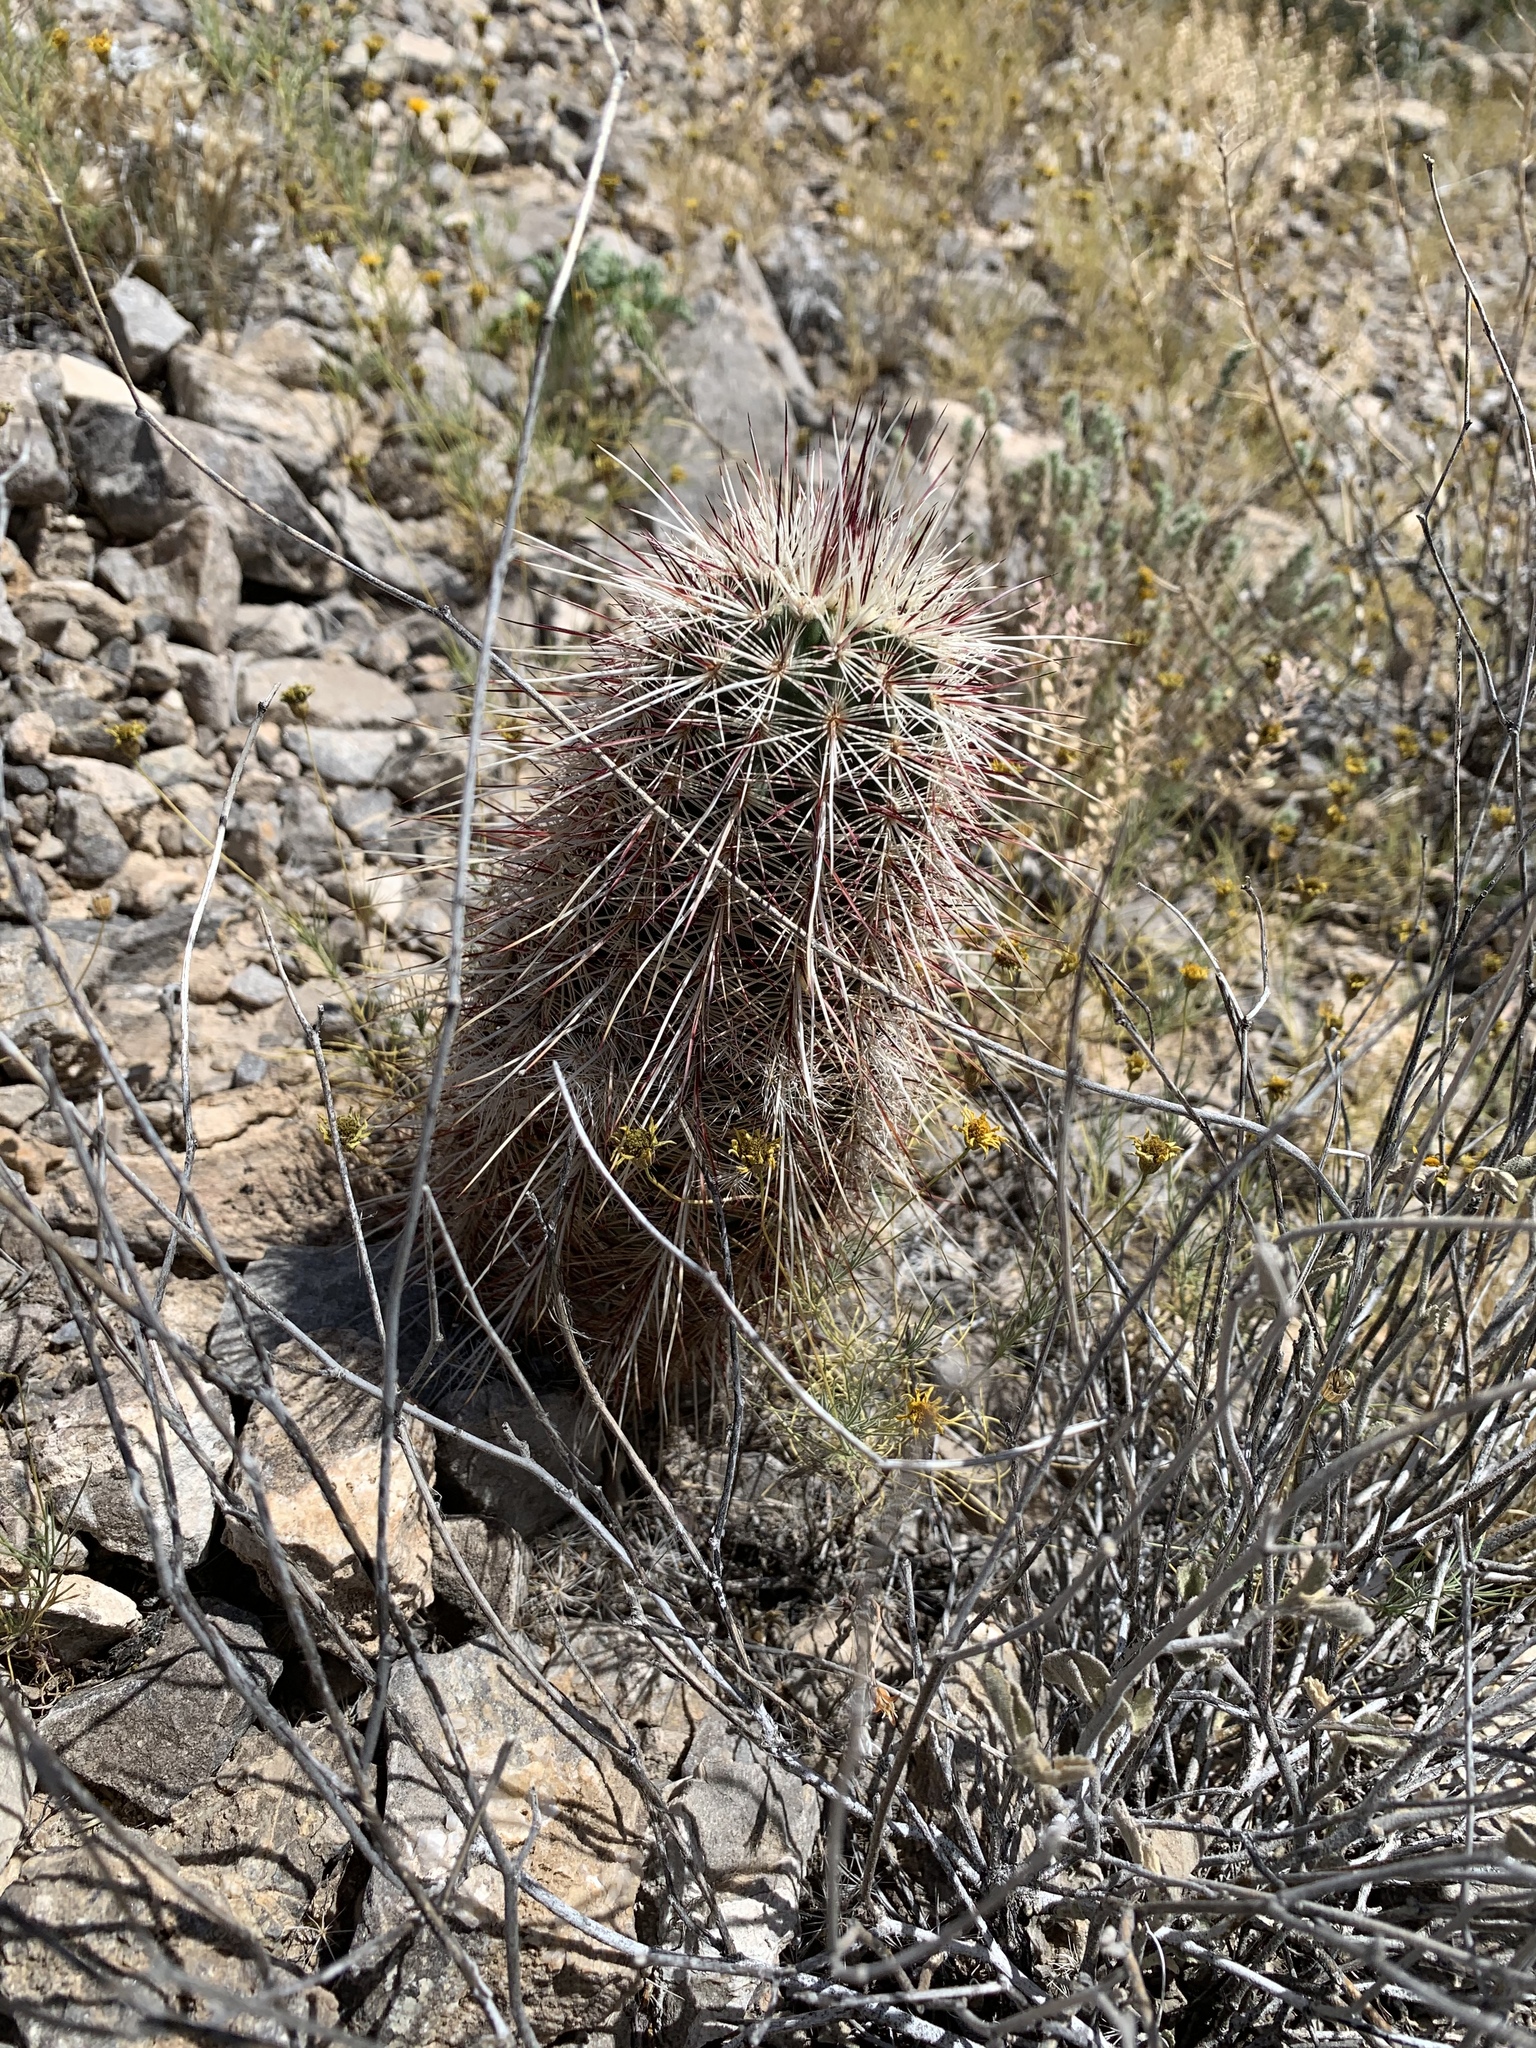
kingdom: Plantae
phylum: Tracheophyta
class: Magnoliopsida
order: Caryophyllales
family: Cactaceae
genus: Echinocereus
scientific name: Echinocereus viridiflorus
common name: Nylon hedgehog cactus
